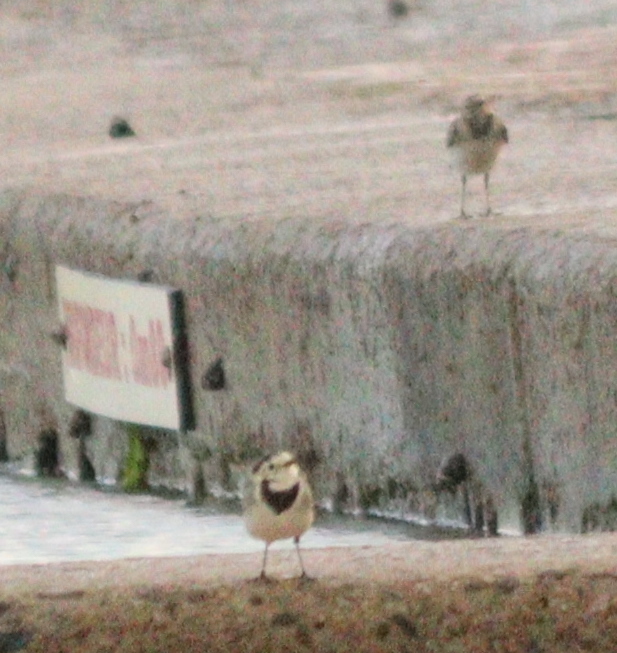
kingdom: Animalia
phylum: Chordata
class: Aves
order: Passeriformes
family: Motacillidae
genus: Motacilla
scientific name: Motacilla alba
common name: White wagtail
